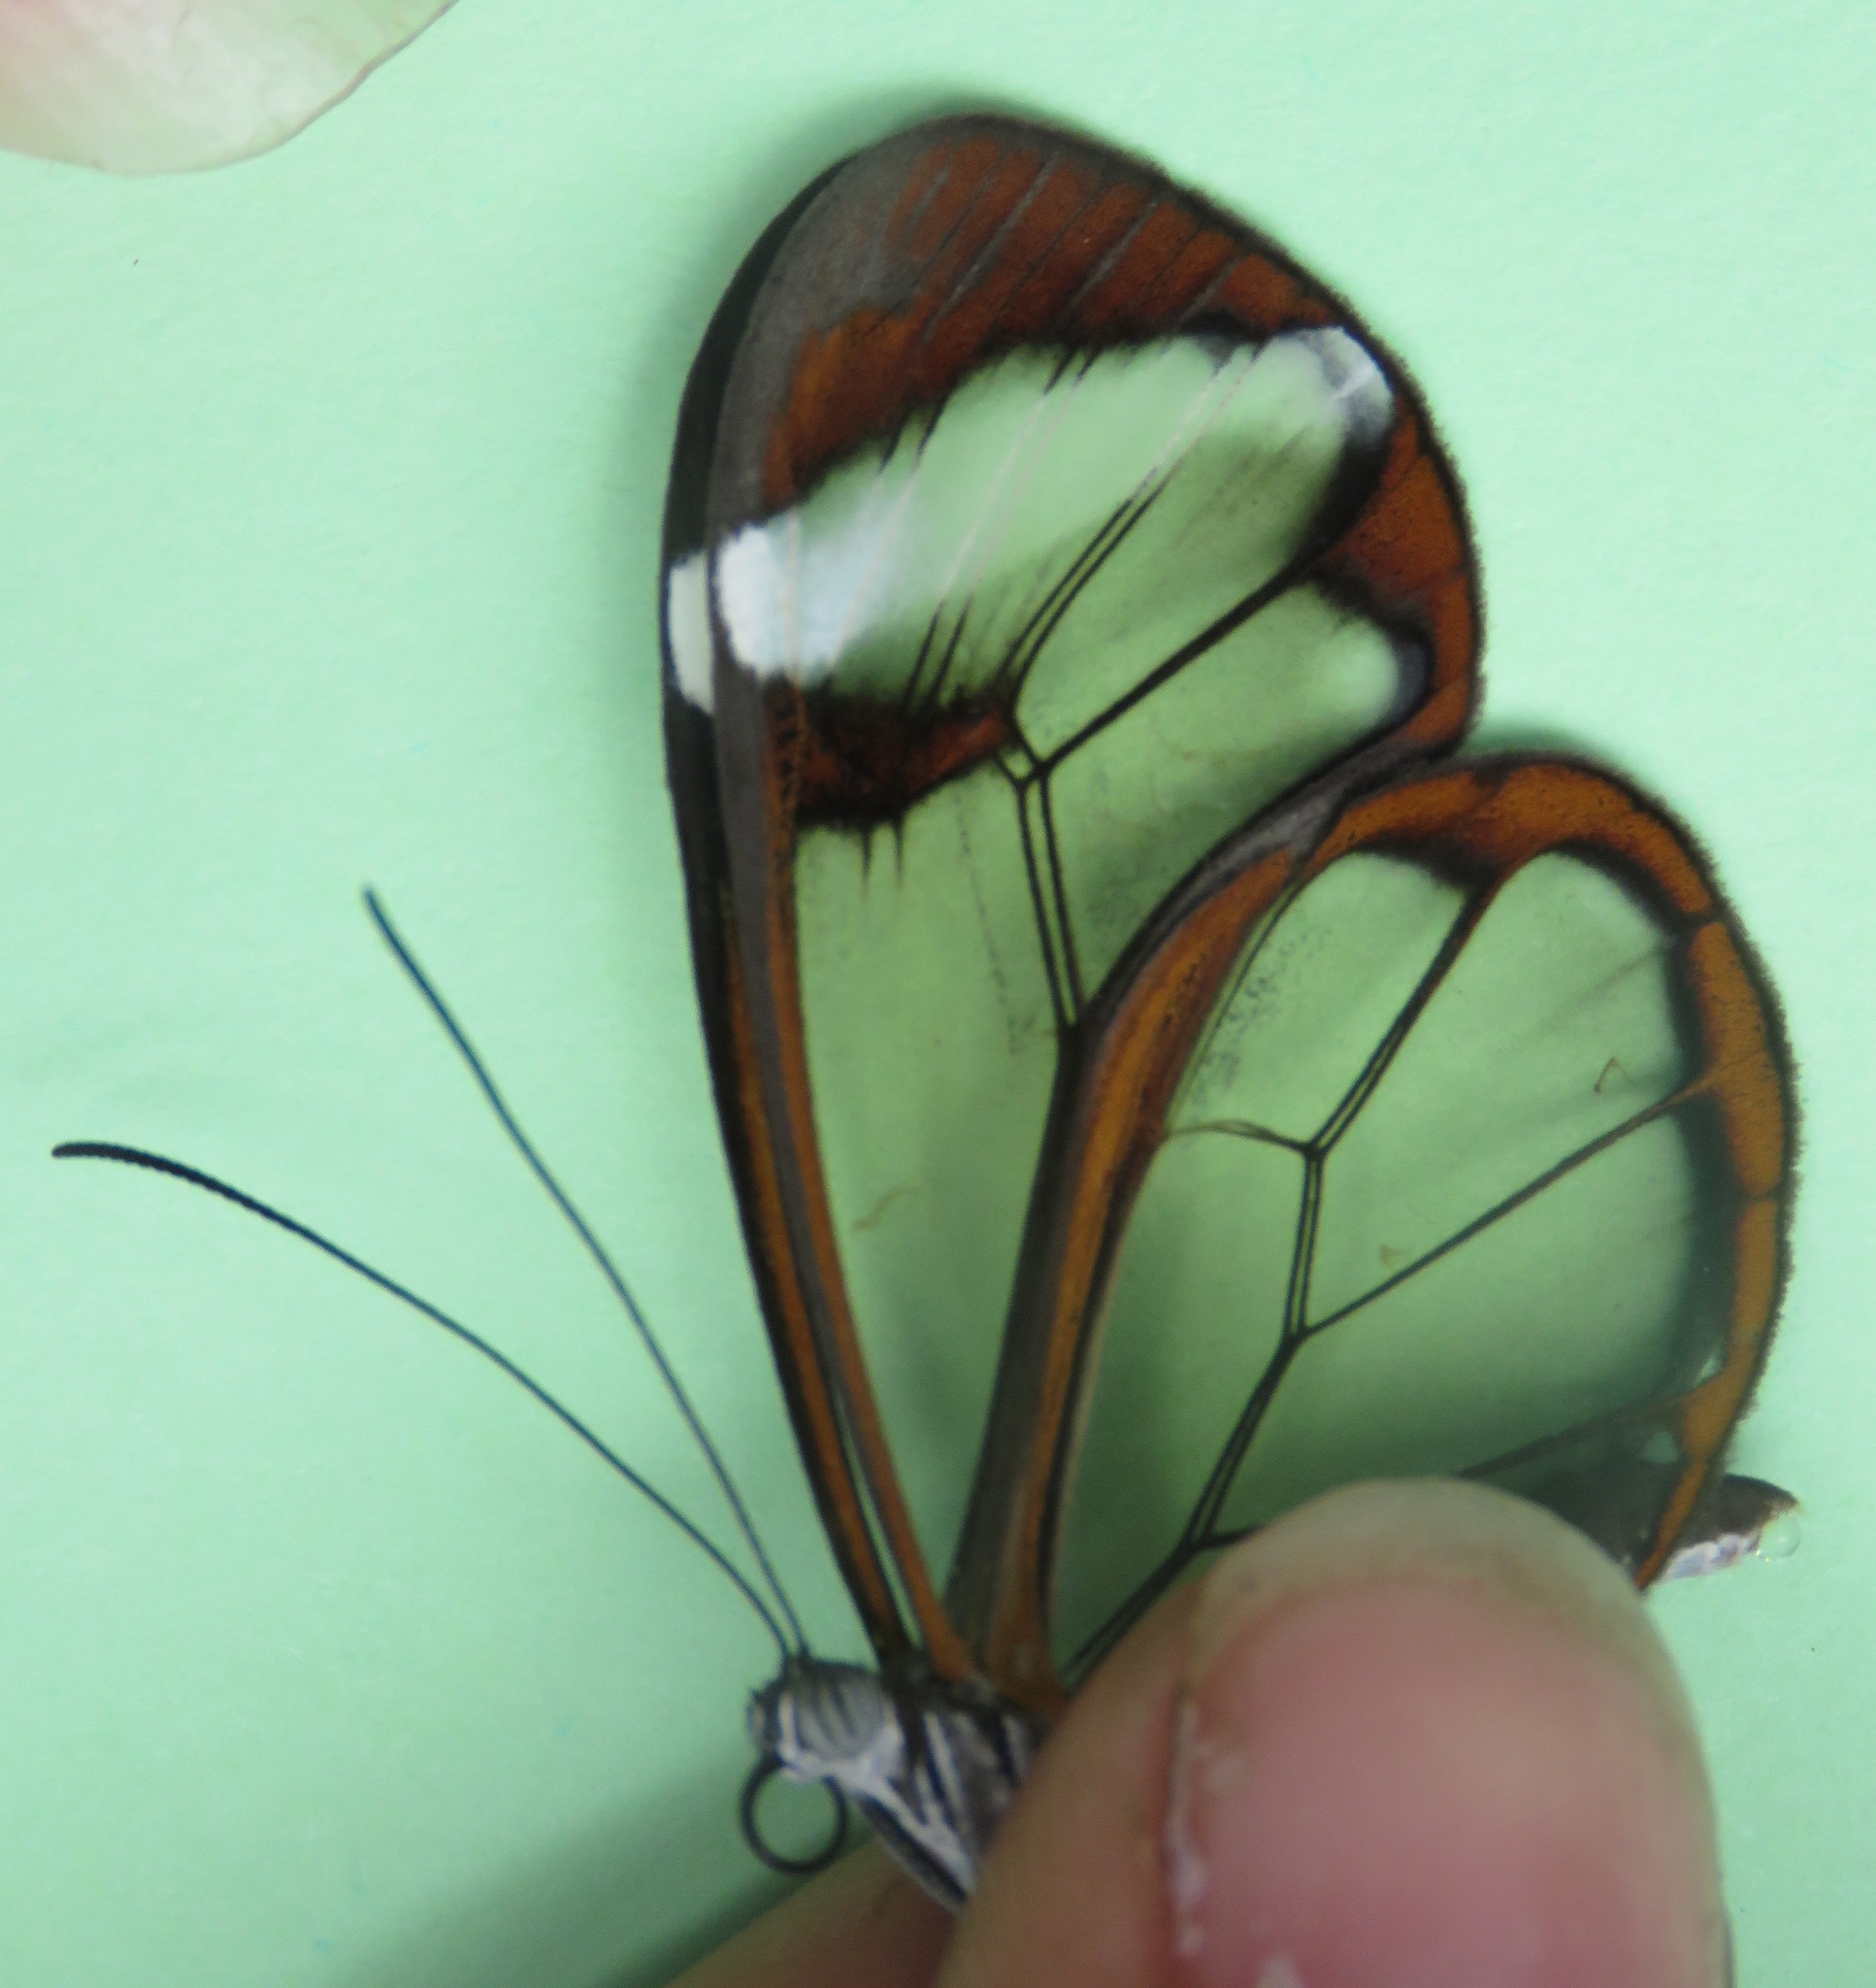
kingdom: Animalia
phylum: Arthropoda
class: Insecta
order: Lepidoptera
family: Nymphalidae
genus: Greta
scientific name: Greta morgane
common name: Thick-tipped greta
